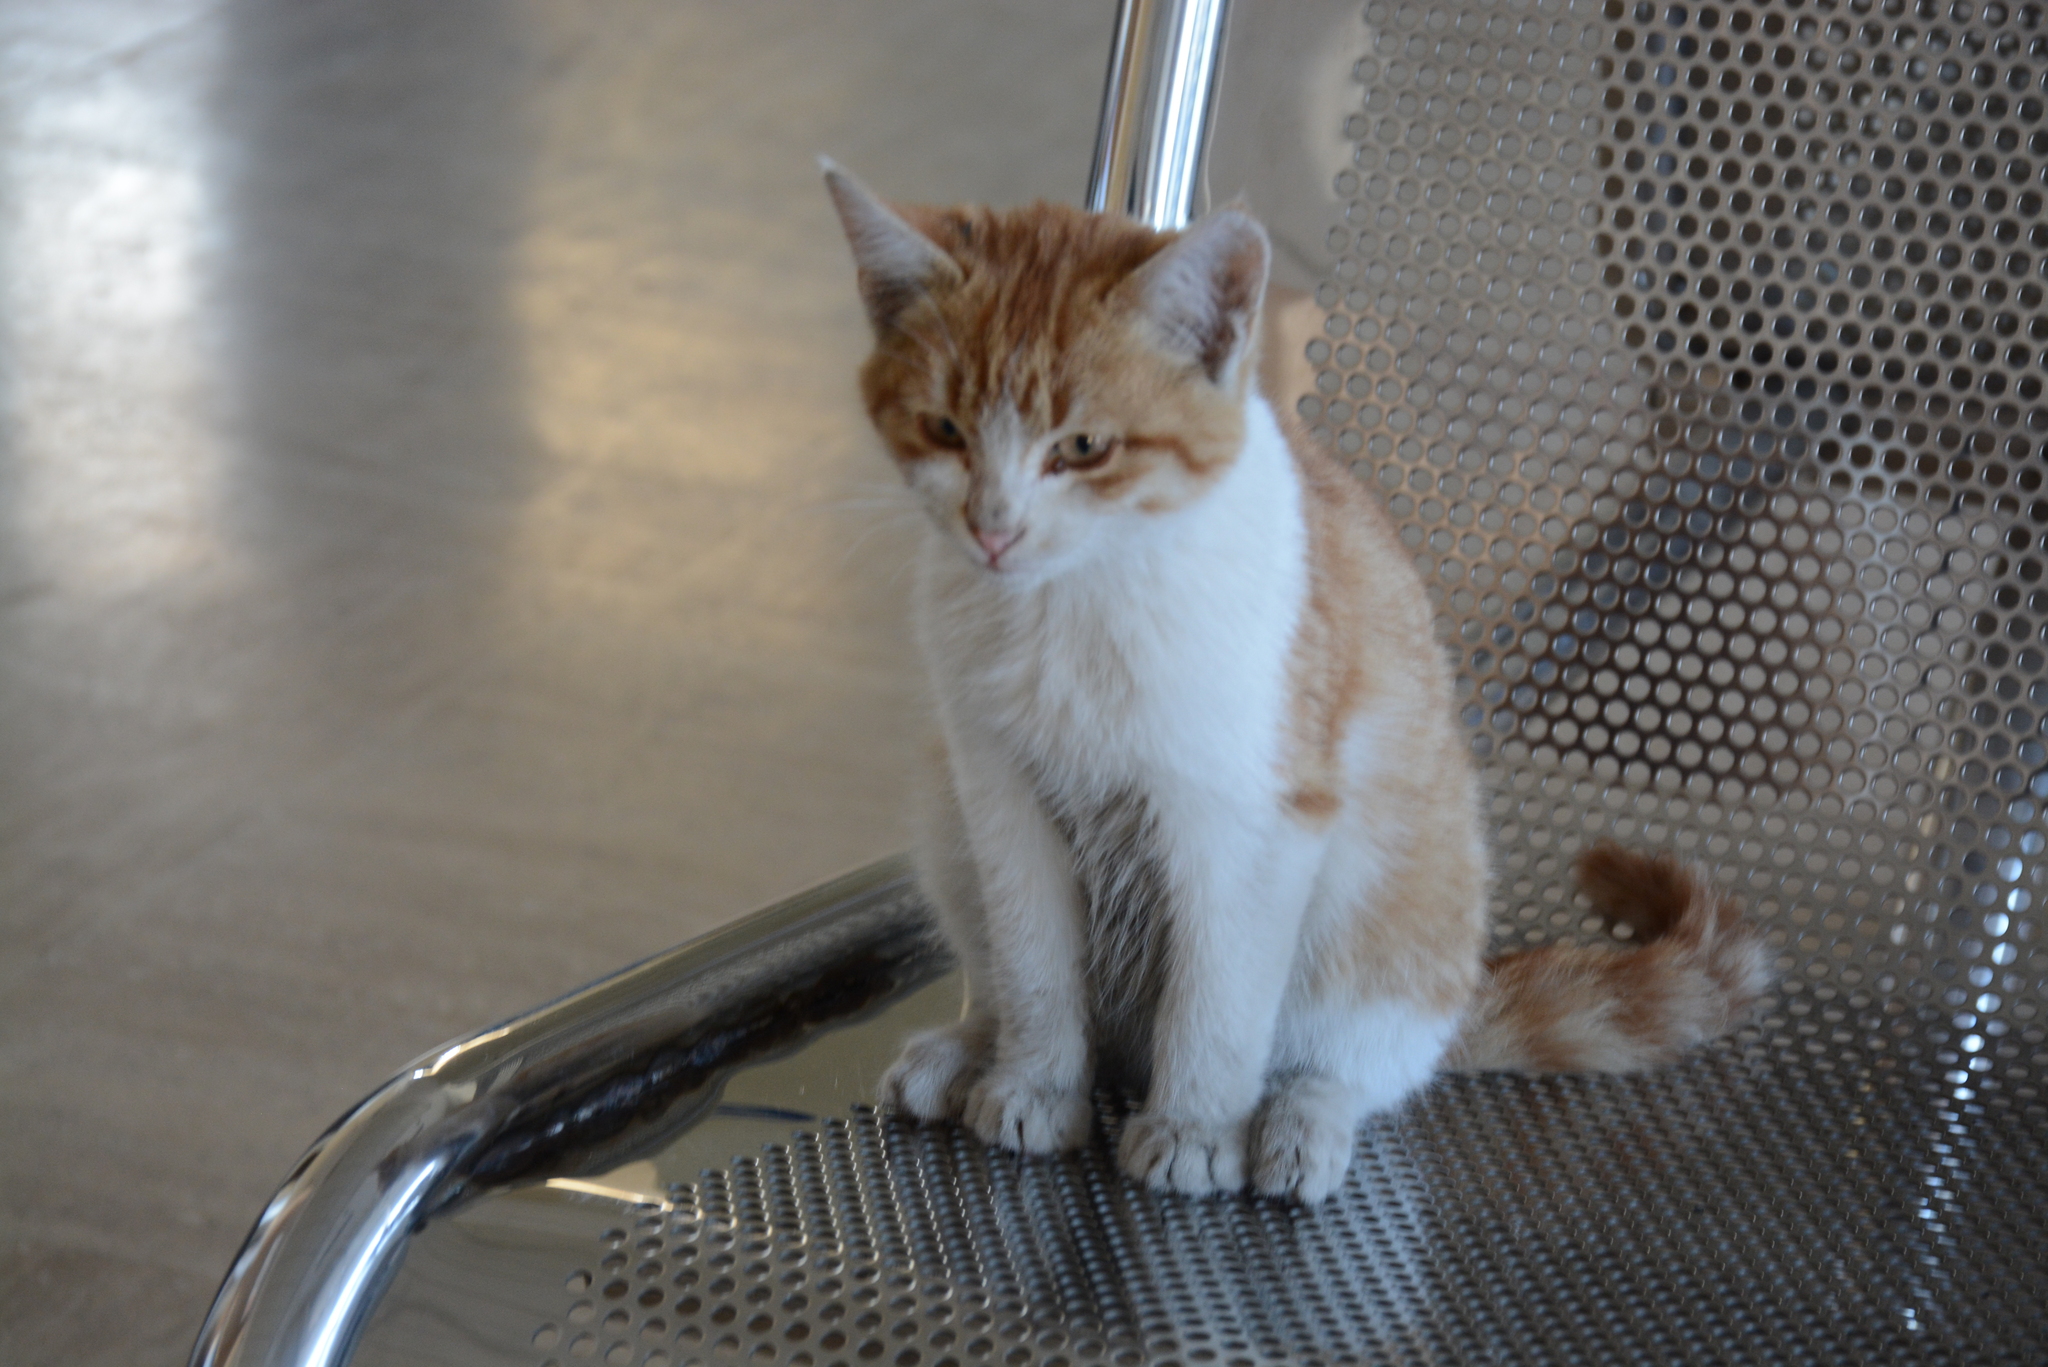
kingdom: Animalia
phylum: Chordata
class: Mammalia
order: Carnivora
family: Felidae
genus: Felis
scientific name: Felis catus
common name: Domestic cat
